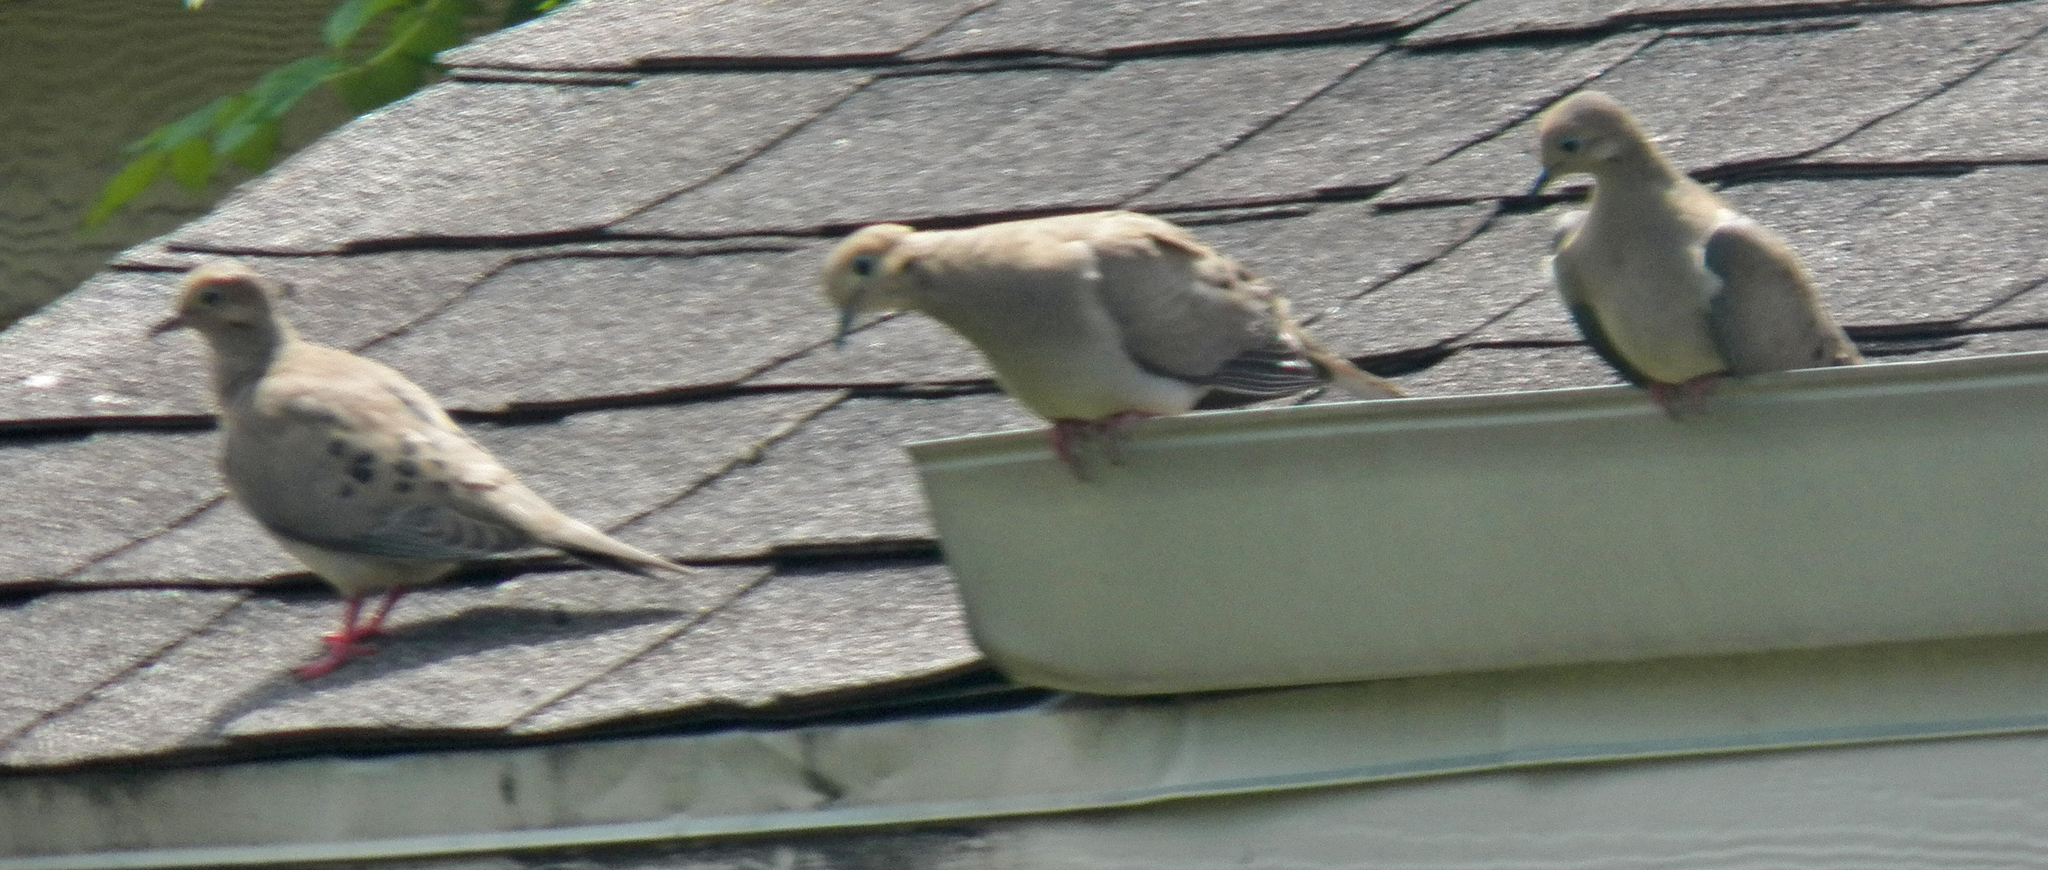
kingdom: Animalia
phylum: Chordata
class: Aves
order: Columbiformes
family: Columbidae
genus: Zenaida
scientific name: Zenaida macroura
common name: Mourning dove
